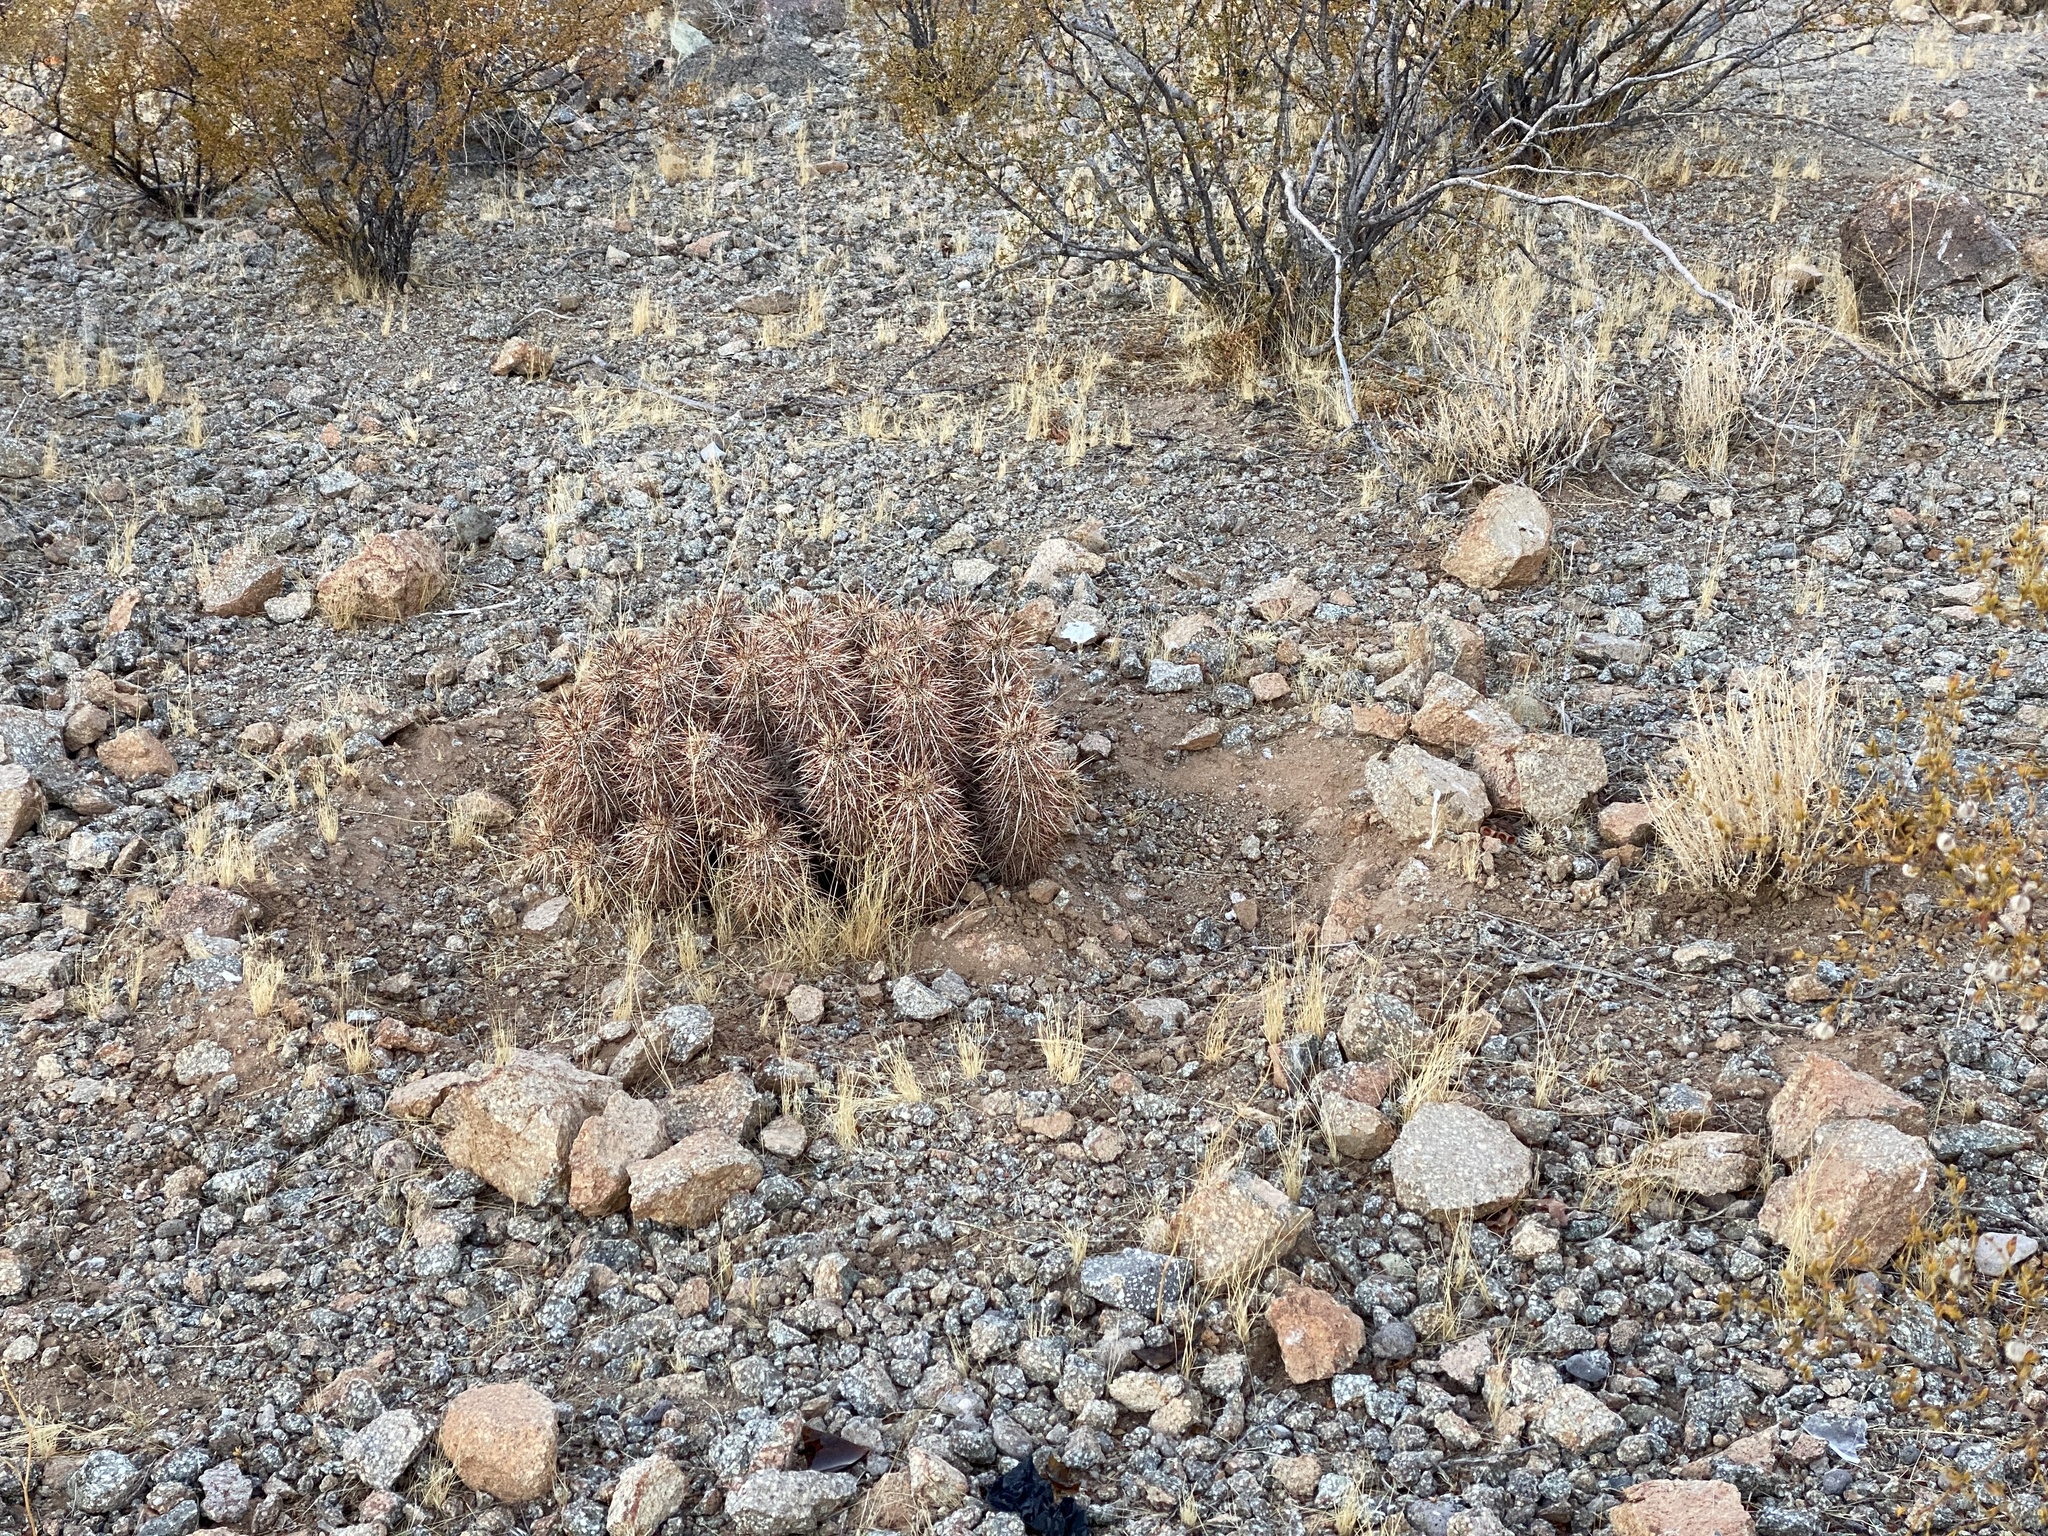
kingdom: Plantae
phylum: Tracheophyta
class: Magnoliopsida
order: Caryophyllales
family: Cactaceae
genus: Echinocereus
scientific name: Echinocereus engelmannii
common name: Engelmann's hedgehog cactus
